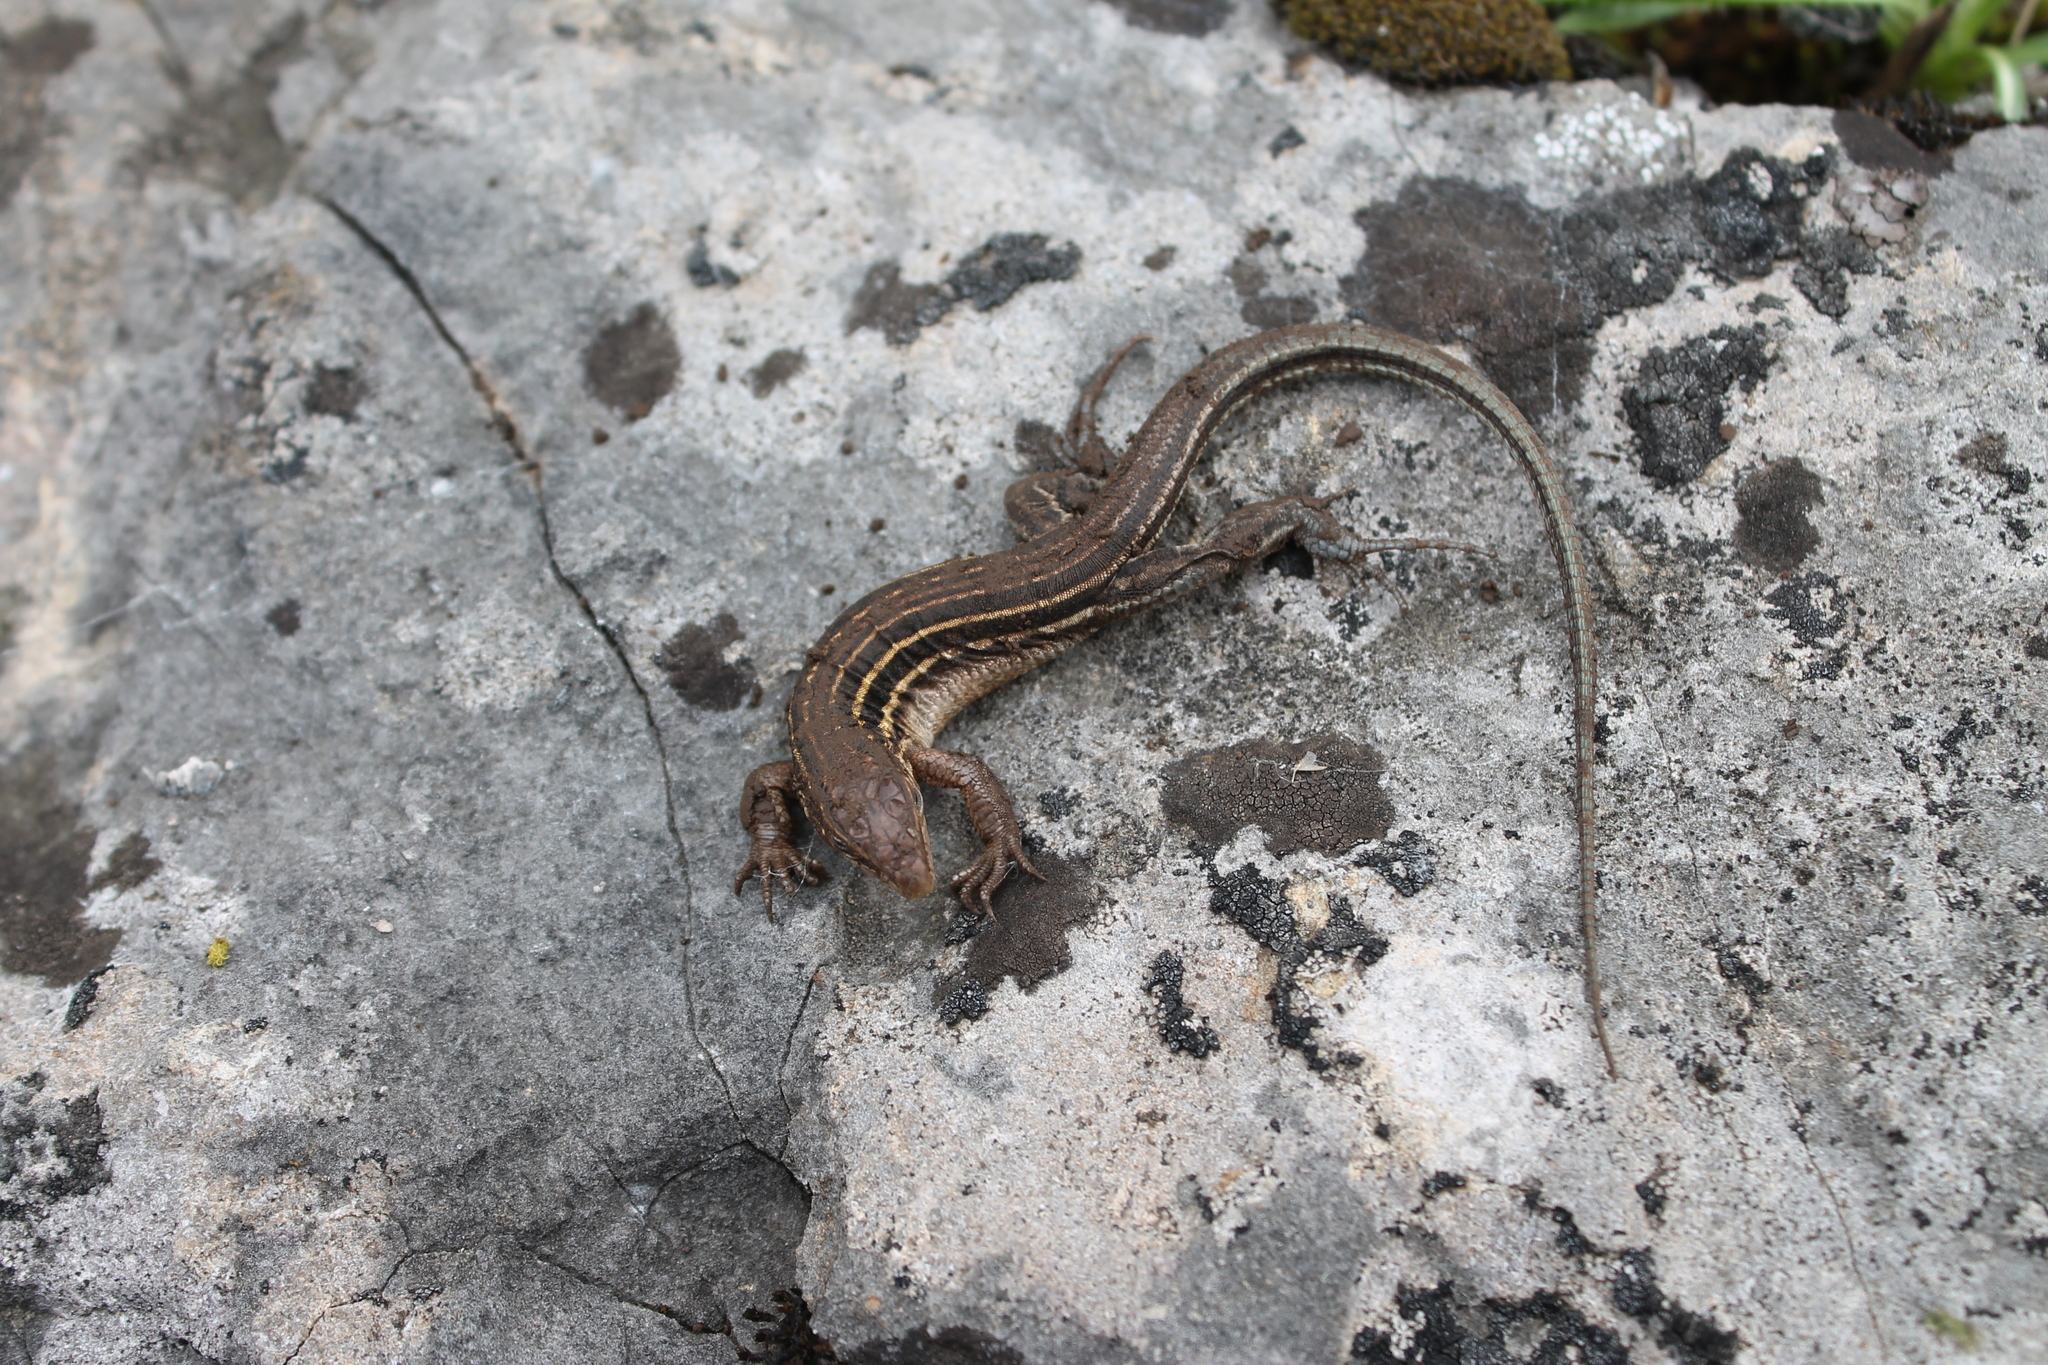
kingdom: Animalia
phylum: Chordata
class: Squamata
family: Teiidae
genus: Aspidoscelis
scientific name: Aspidoscelis sexlineatus
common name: Six-lined racerunner
